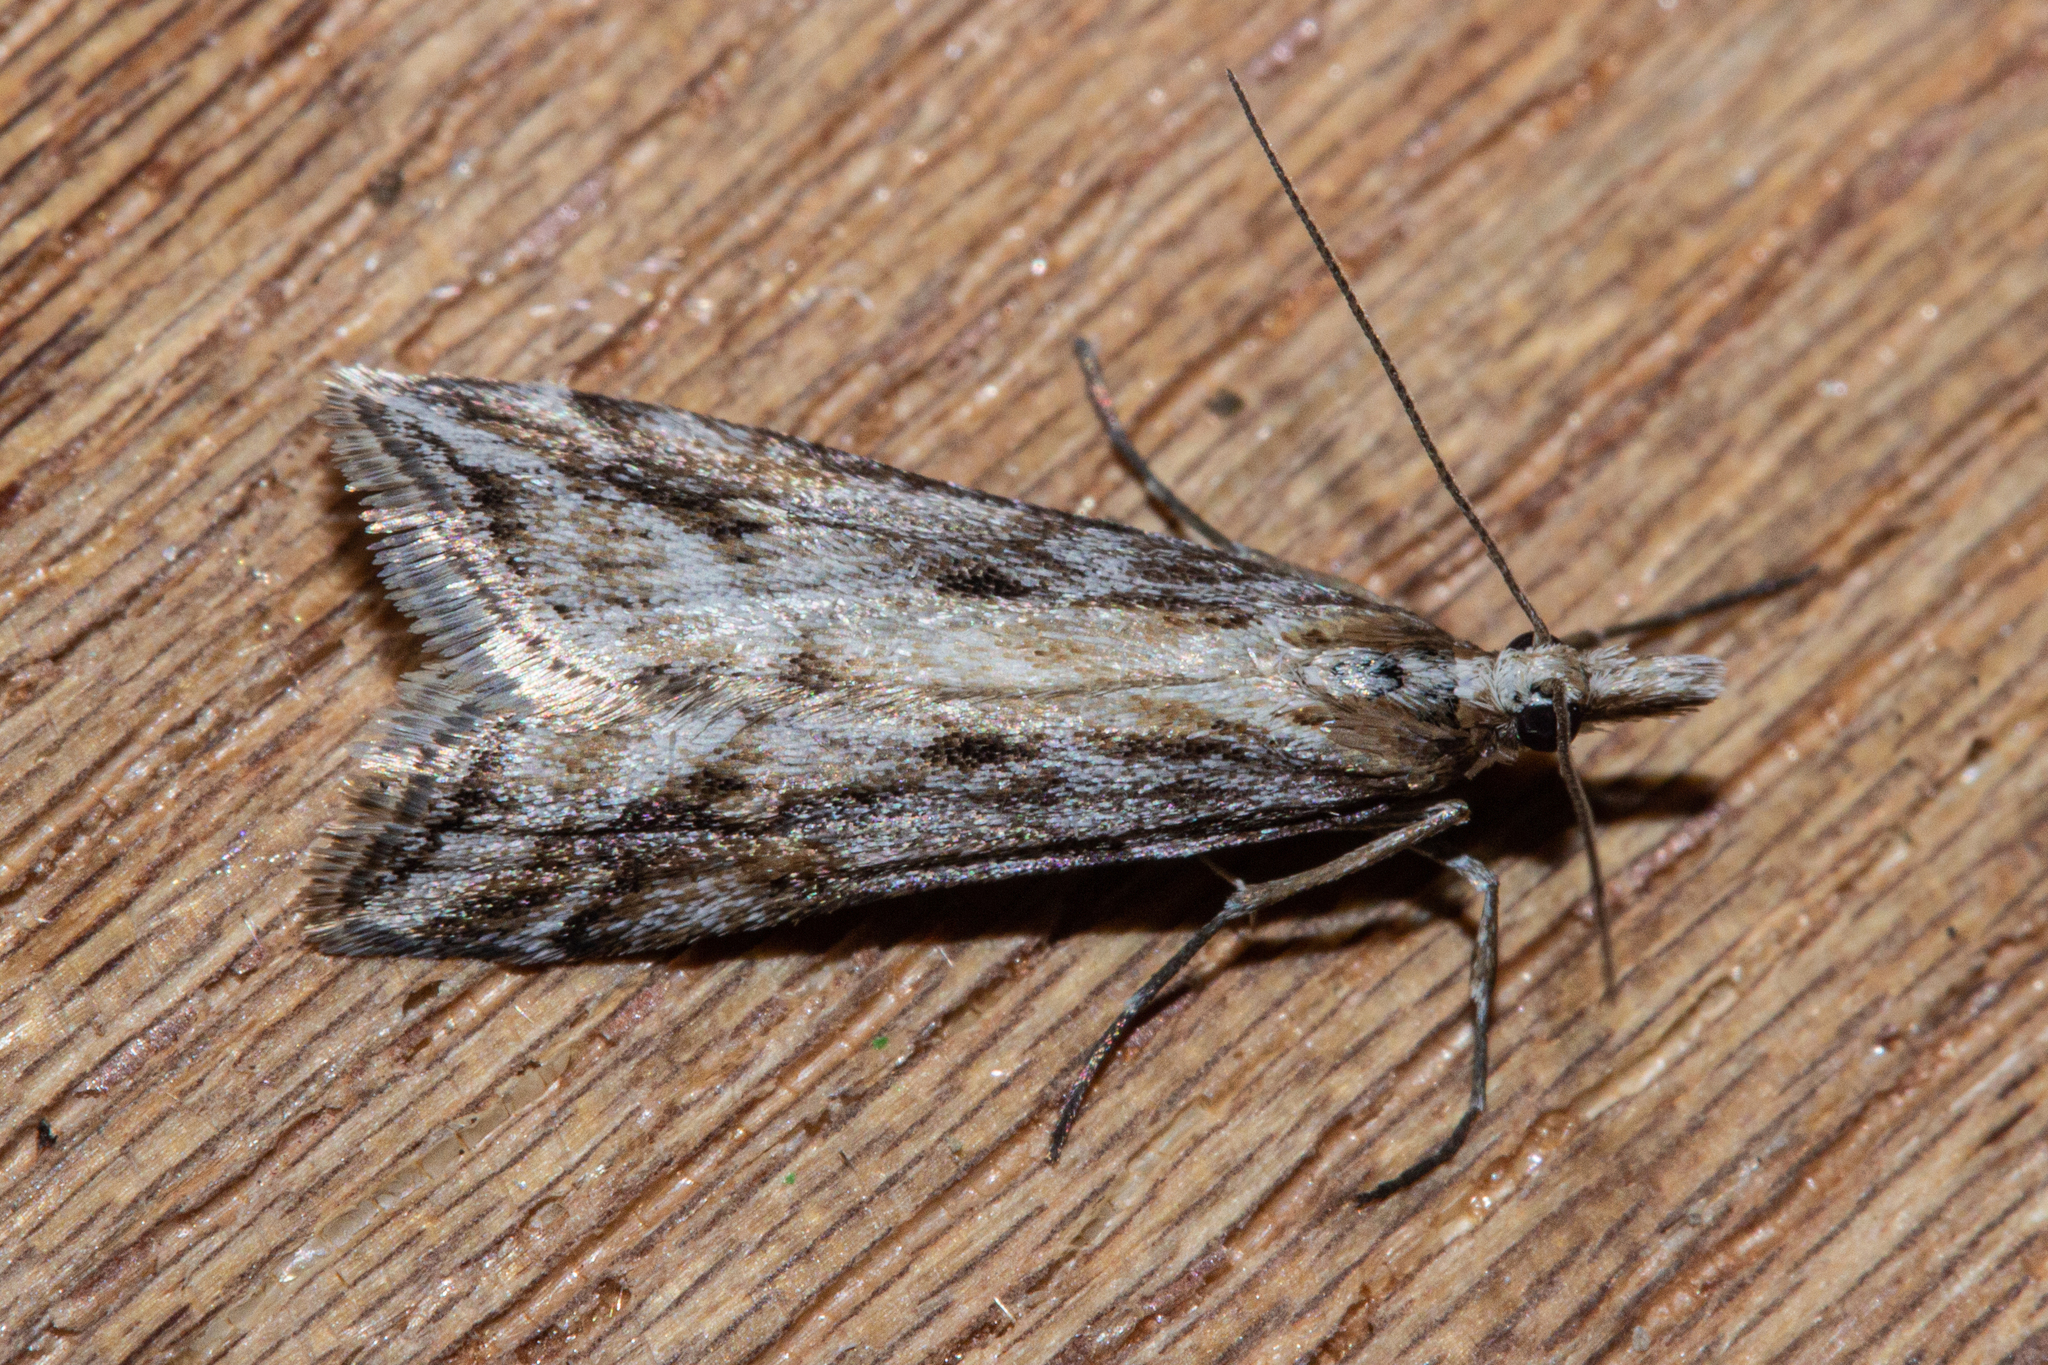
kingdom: Animalia
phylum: Arthropoda
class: Insecta
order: Lepidoptera
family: Crambidae
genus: Scoparia
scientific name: Scoparia exilis
